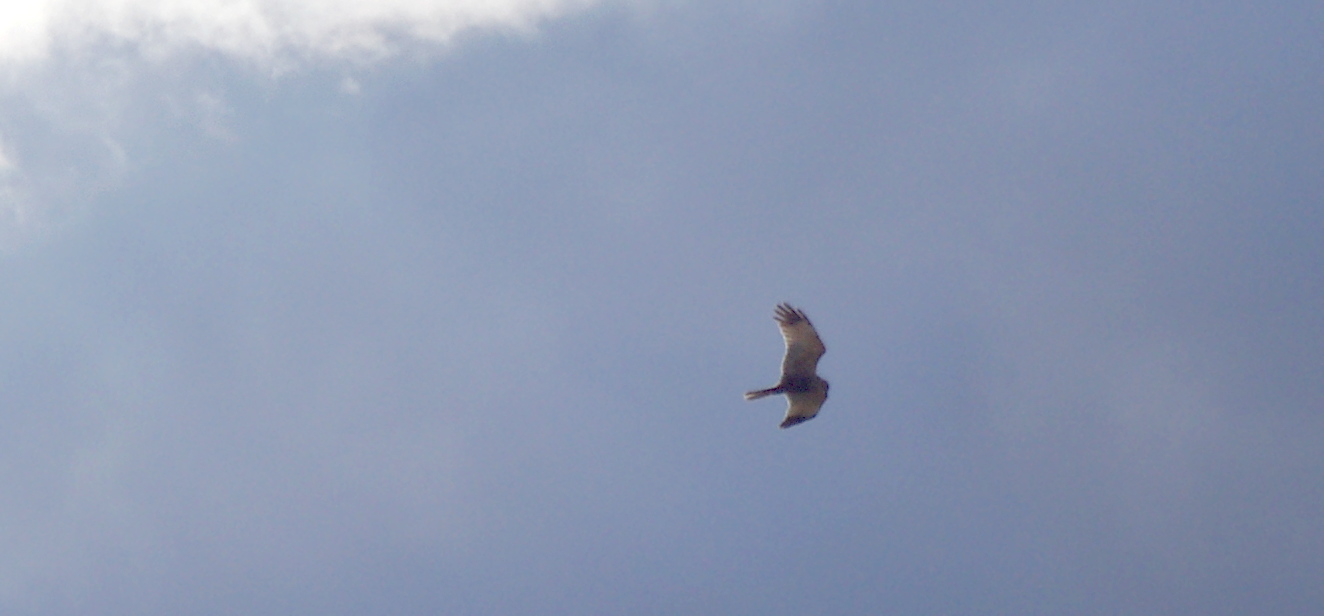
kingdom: Animalia
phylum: Chordata
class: Aves
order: Accipitriformes
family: Accipitridae
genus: Circus
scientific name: Circus cyaneus
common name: Hen harrier
